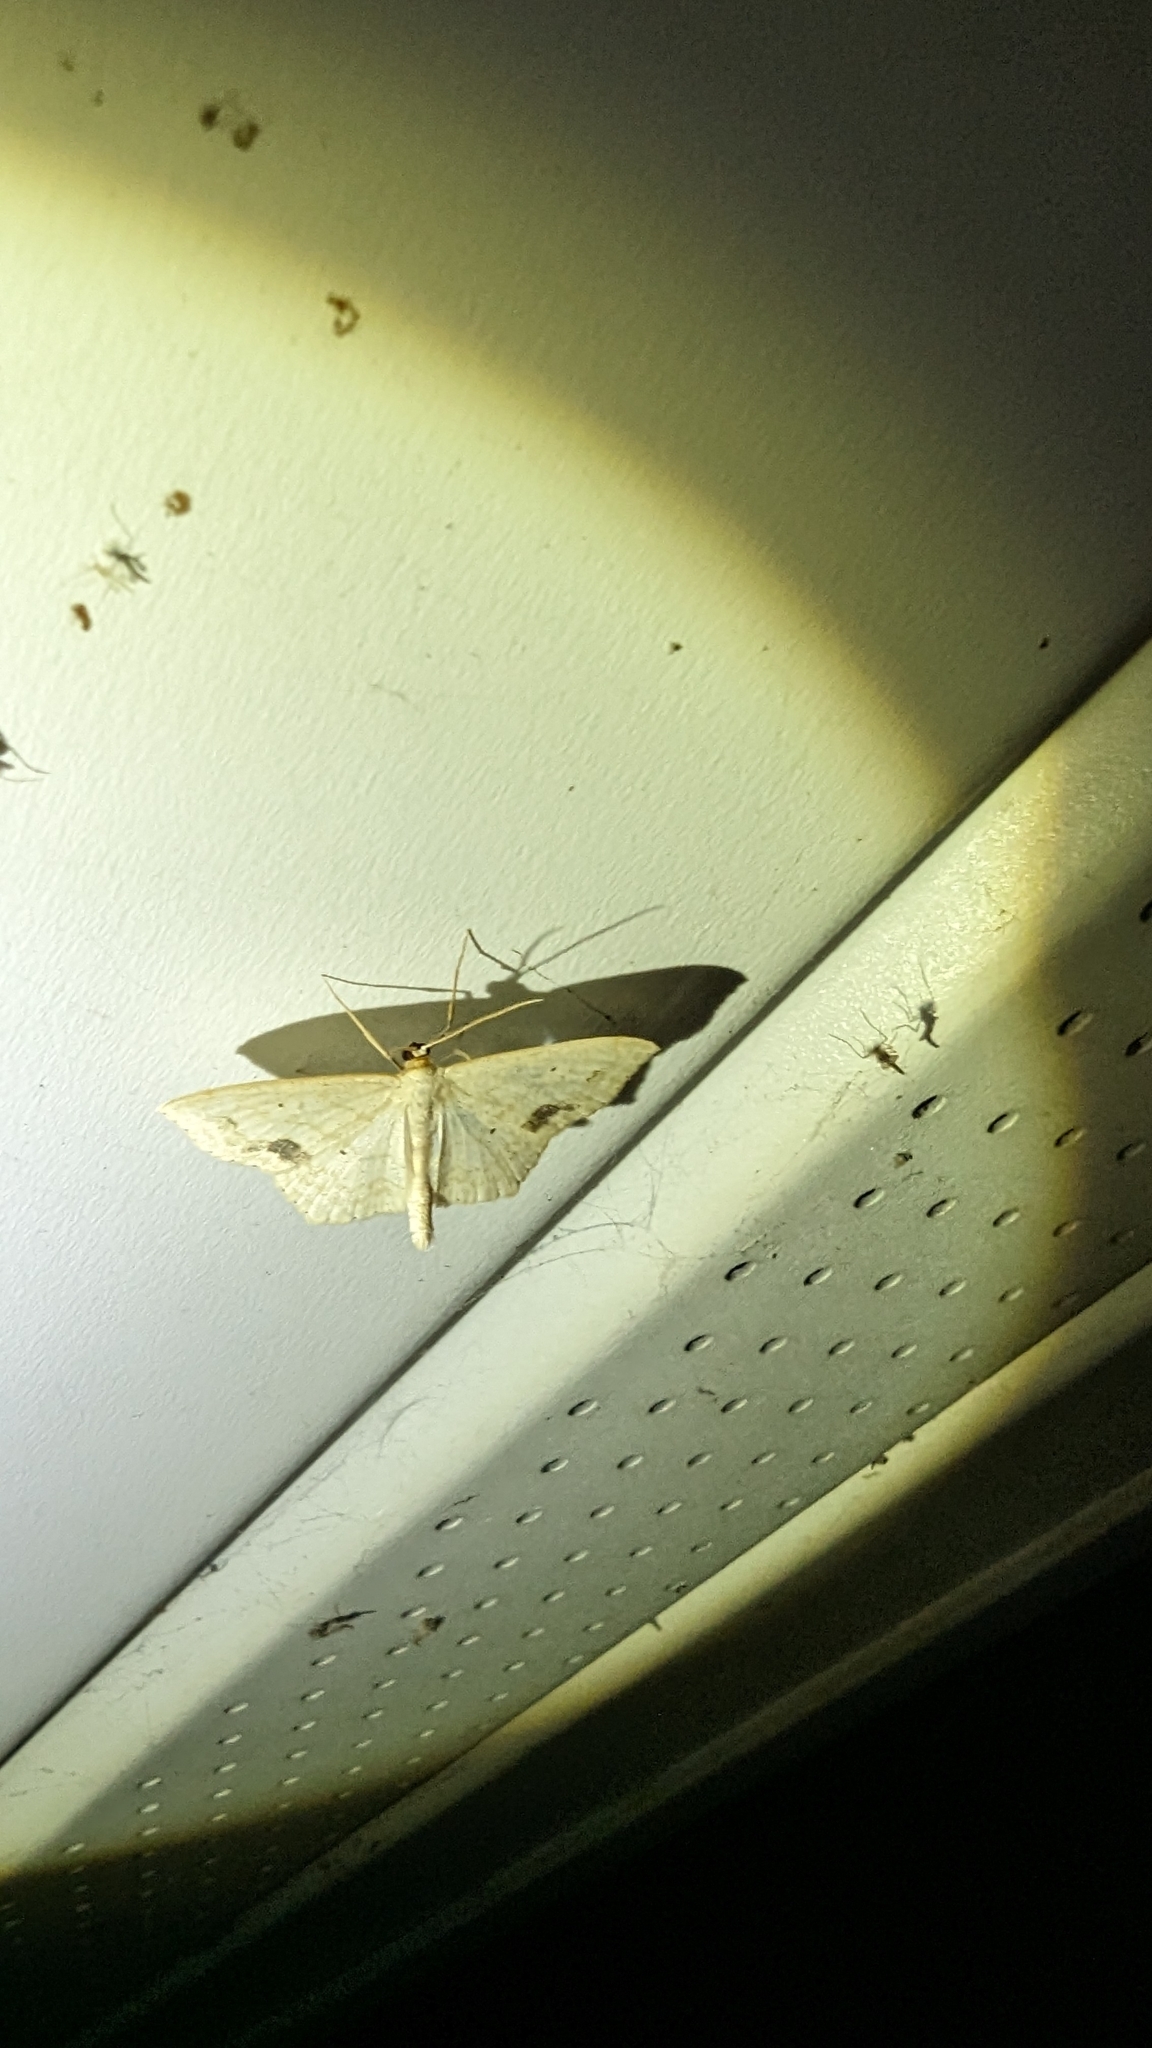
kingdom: Animalia
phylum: Arthropoda
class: Insecta
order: Lepidoptera
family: Geometridae
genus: Scopula
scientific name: Scopula limboundata
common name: Large lace border
